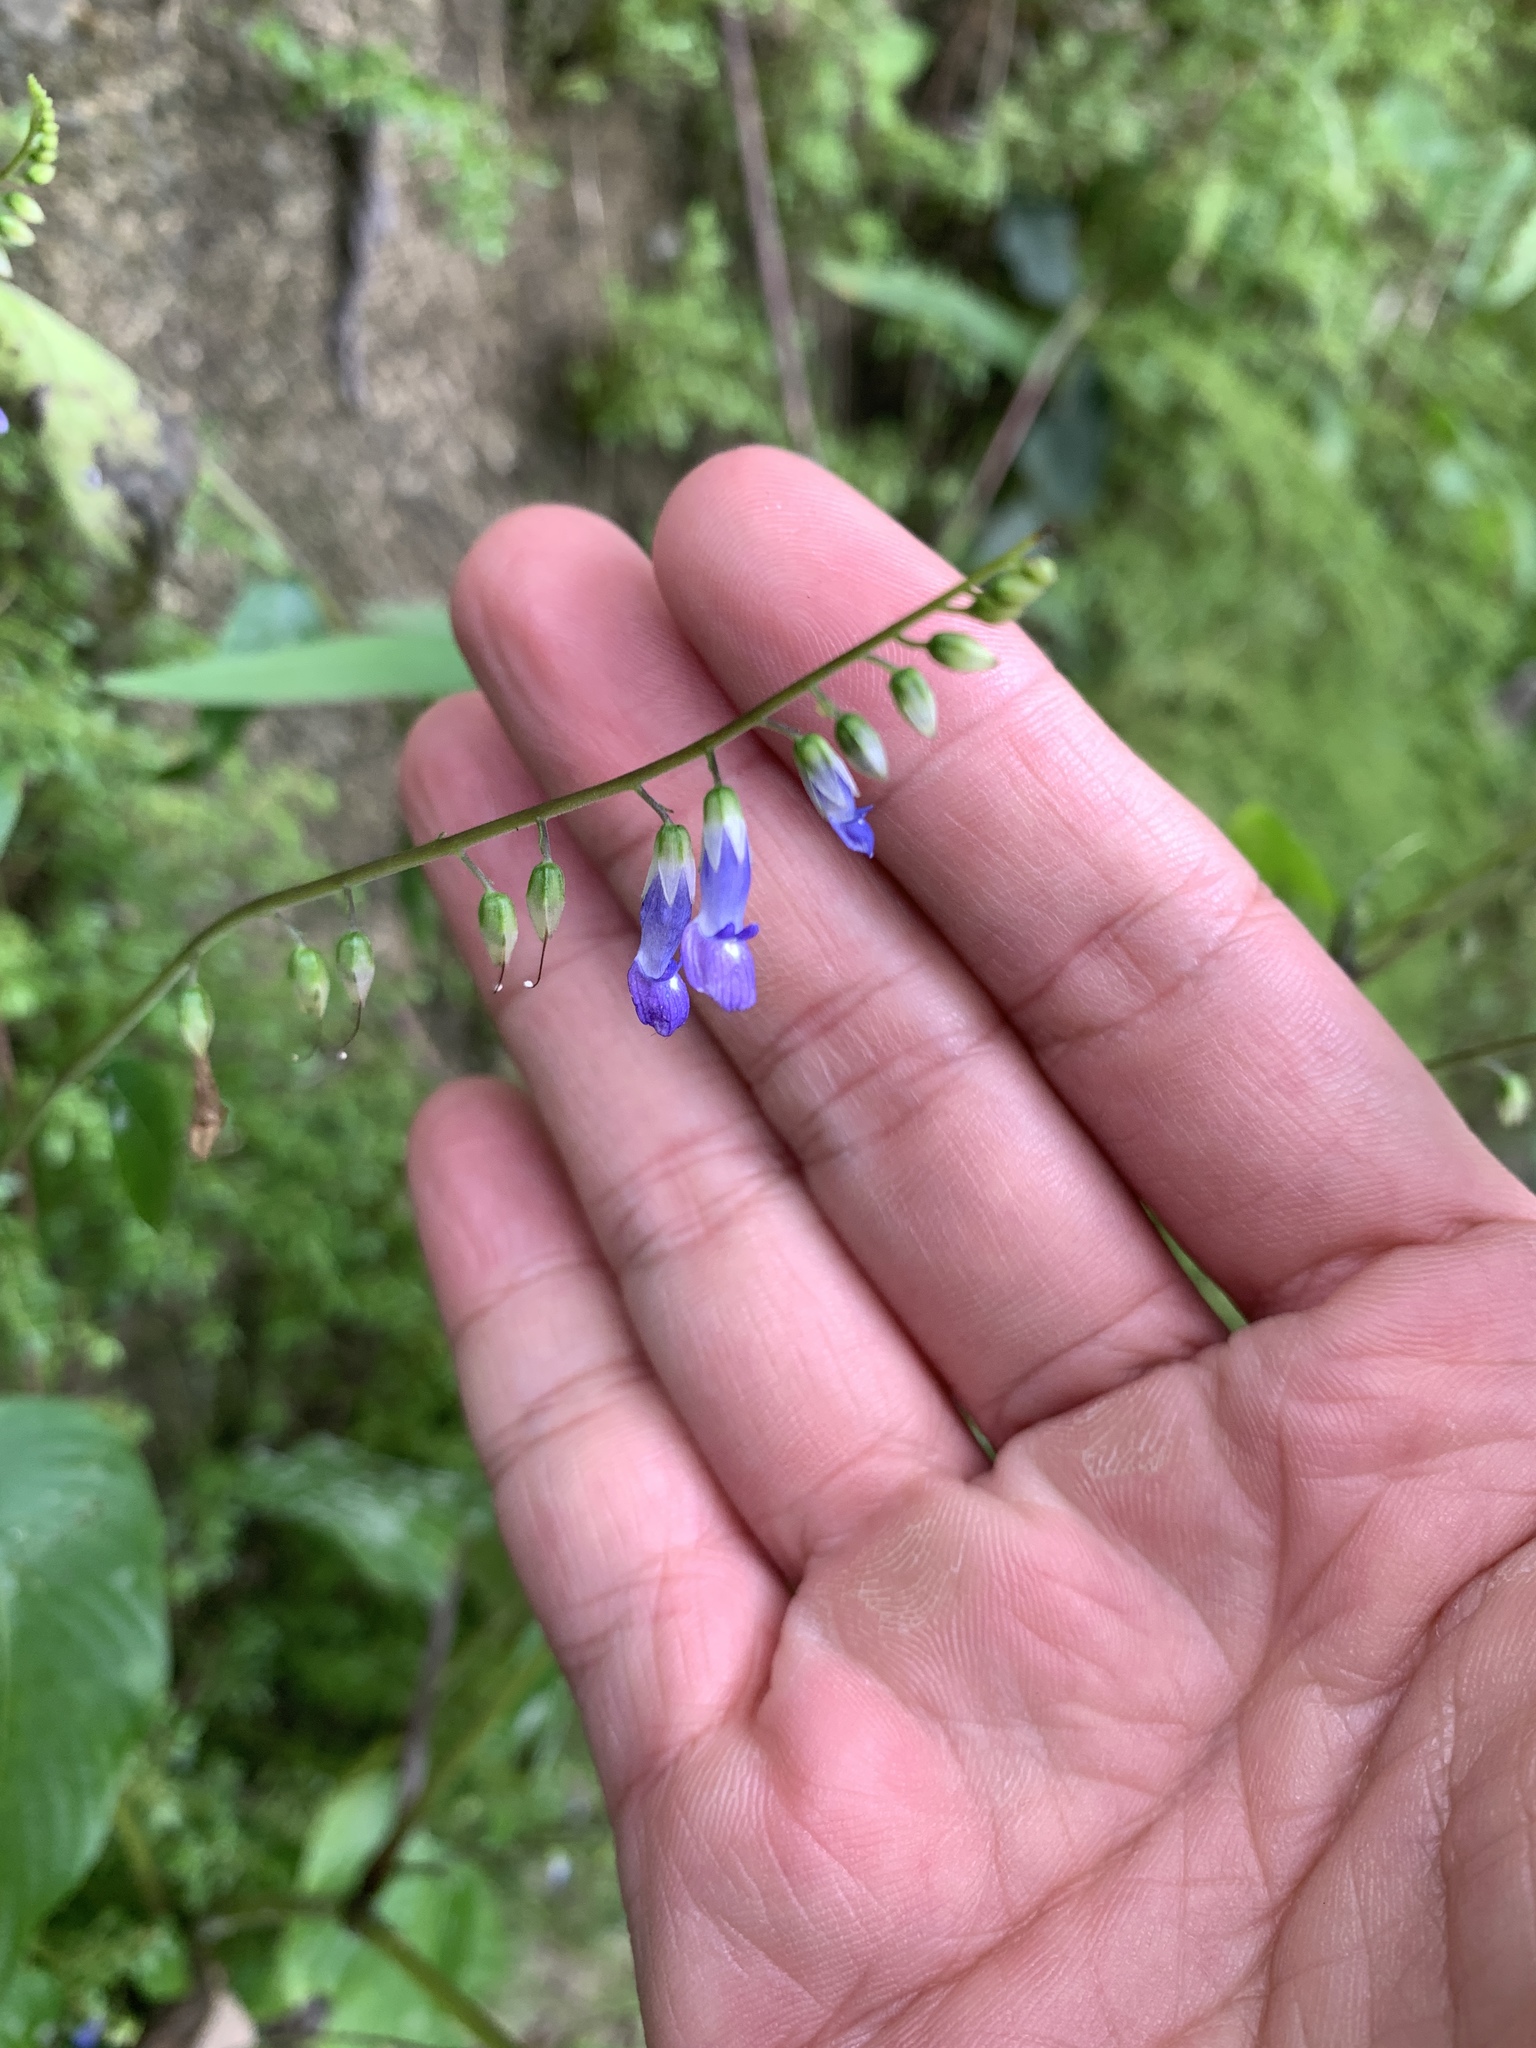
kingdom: Plantae
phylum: Tracheophyta
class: Magnoliopsida
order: Lamiales
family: Gesneriaceae
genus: Rhynchoglossum
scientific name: Rhynchoglossum obliquum
